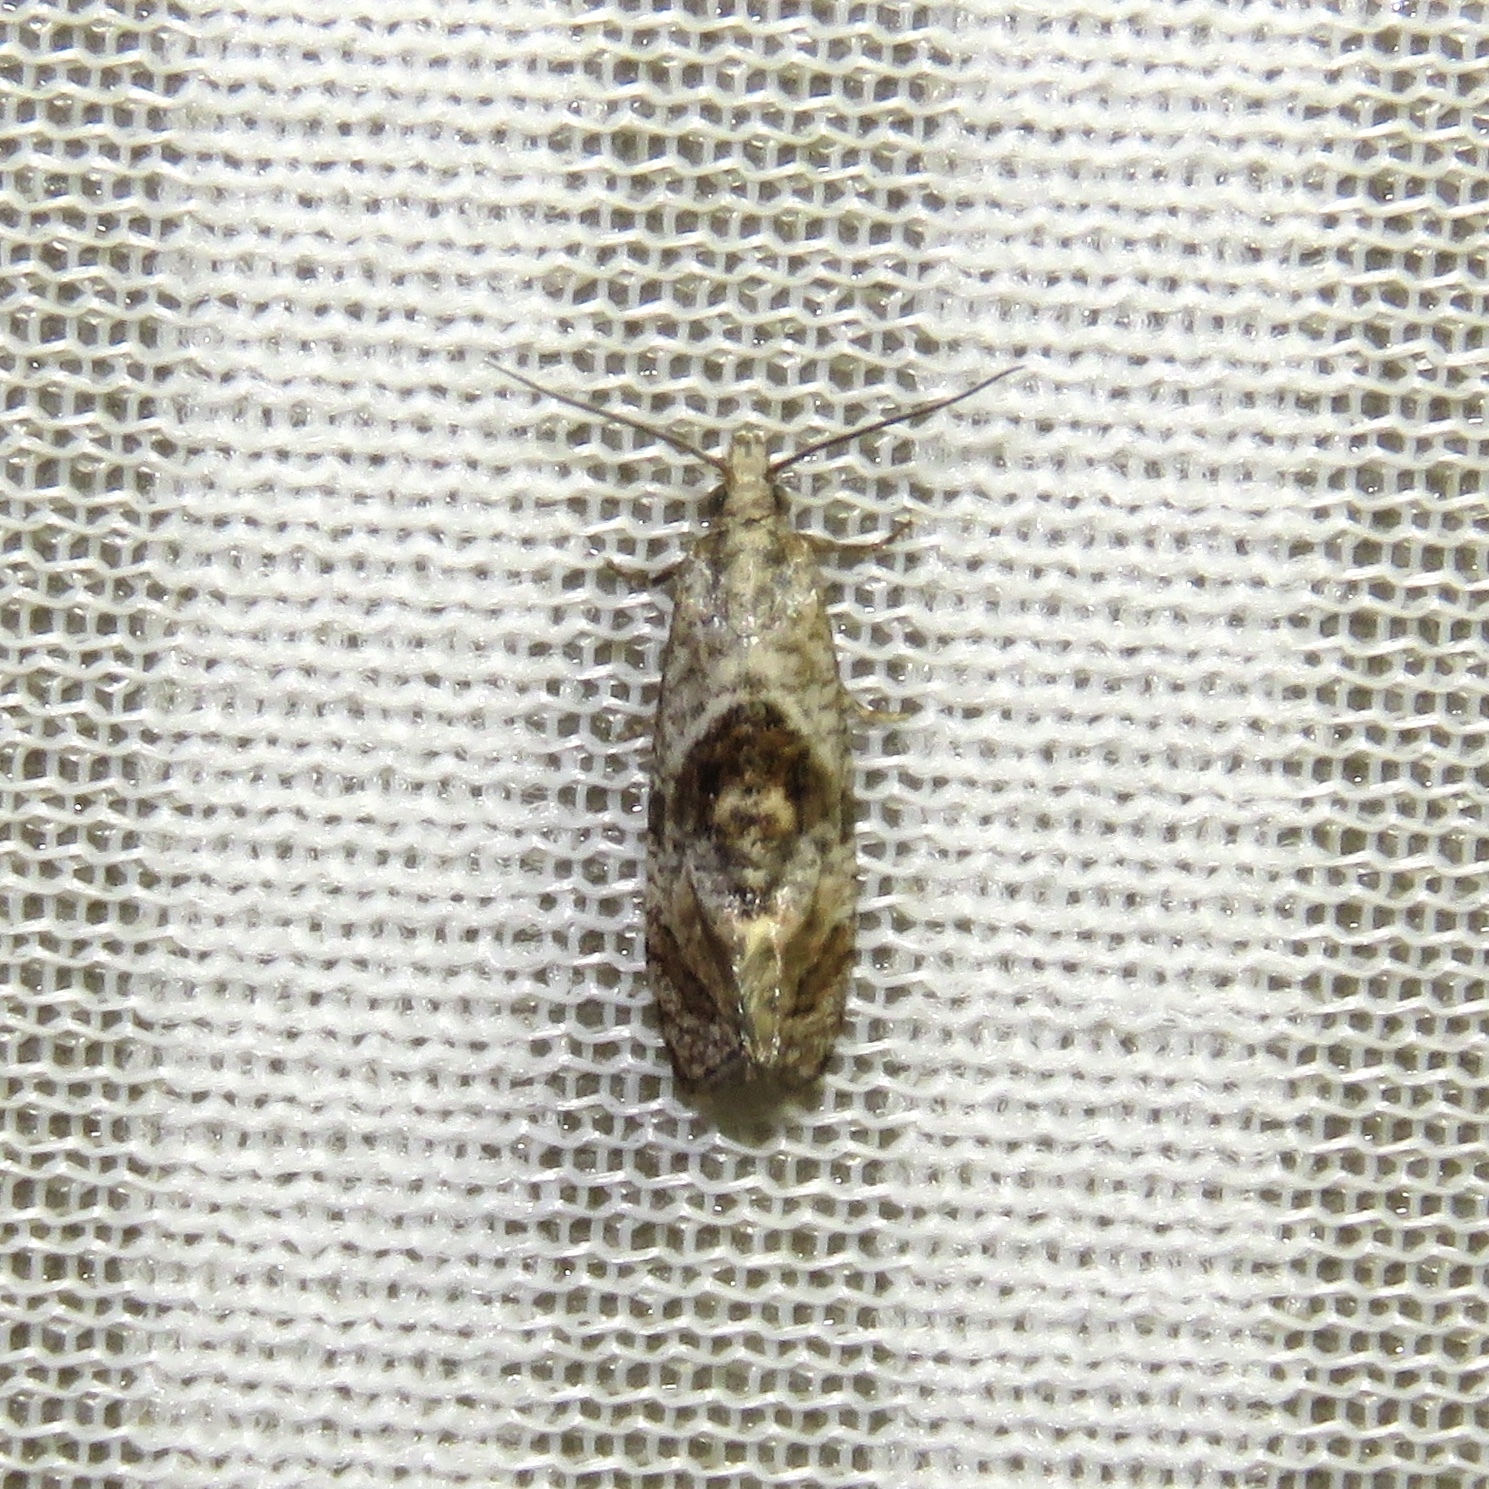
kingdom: Animalia
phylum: Arthropoda
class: Insecta
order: Lepidoptera
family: Tortricidae
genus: Cochylis
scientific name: Cochylis Cochylichroa temerana
